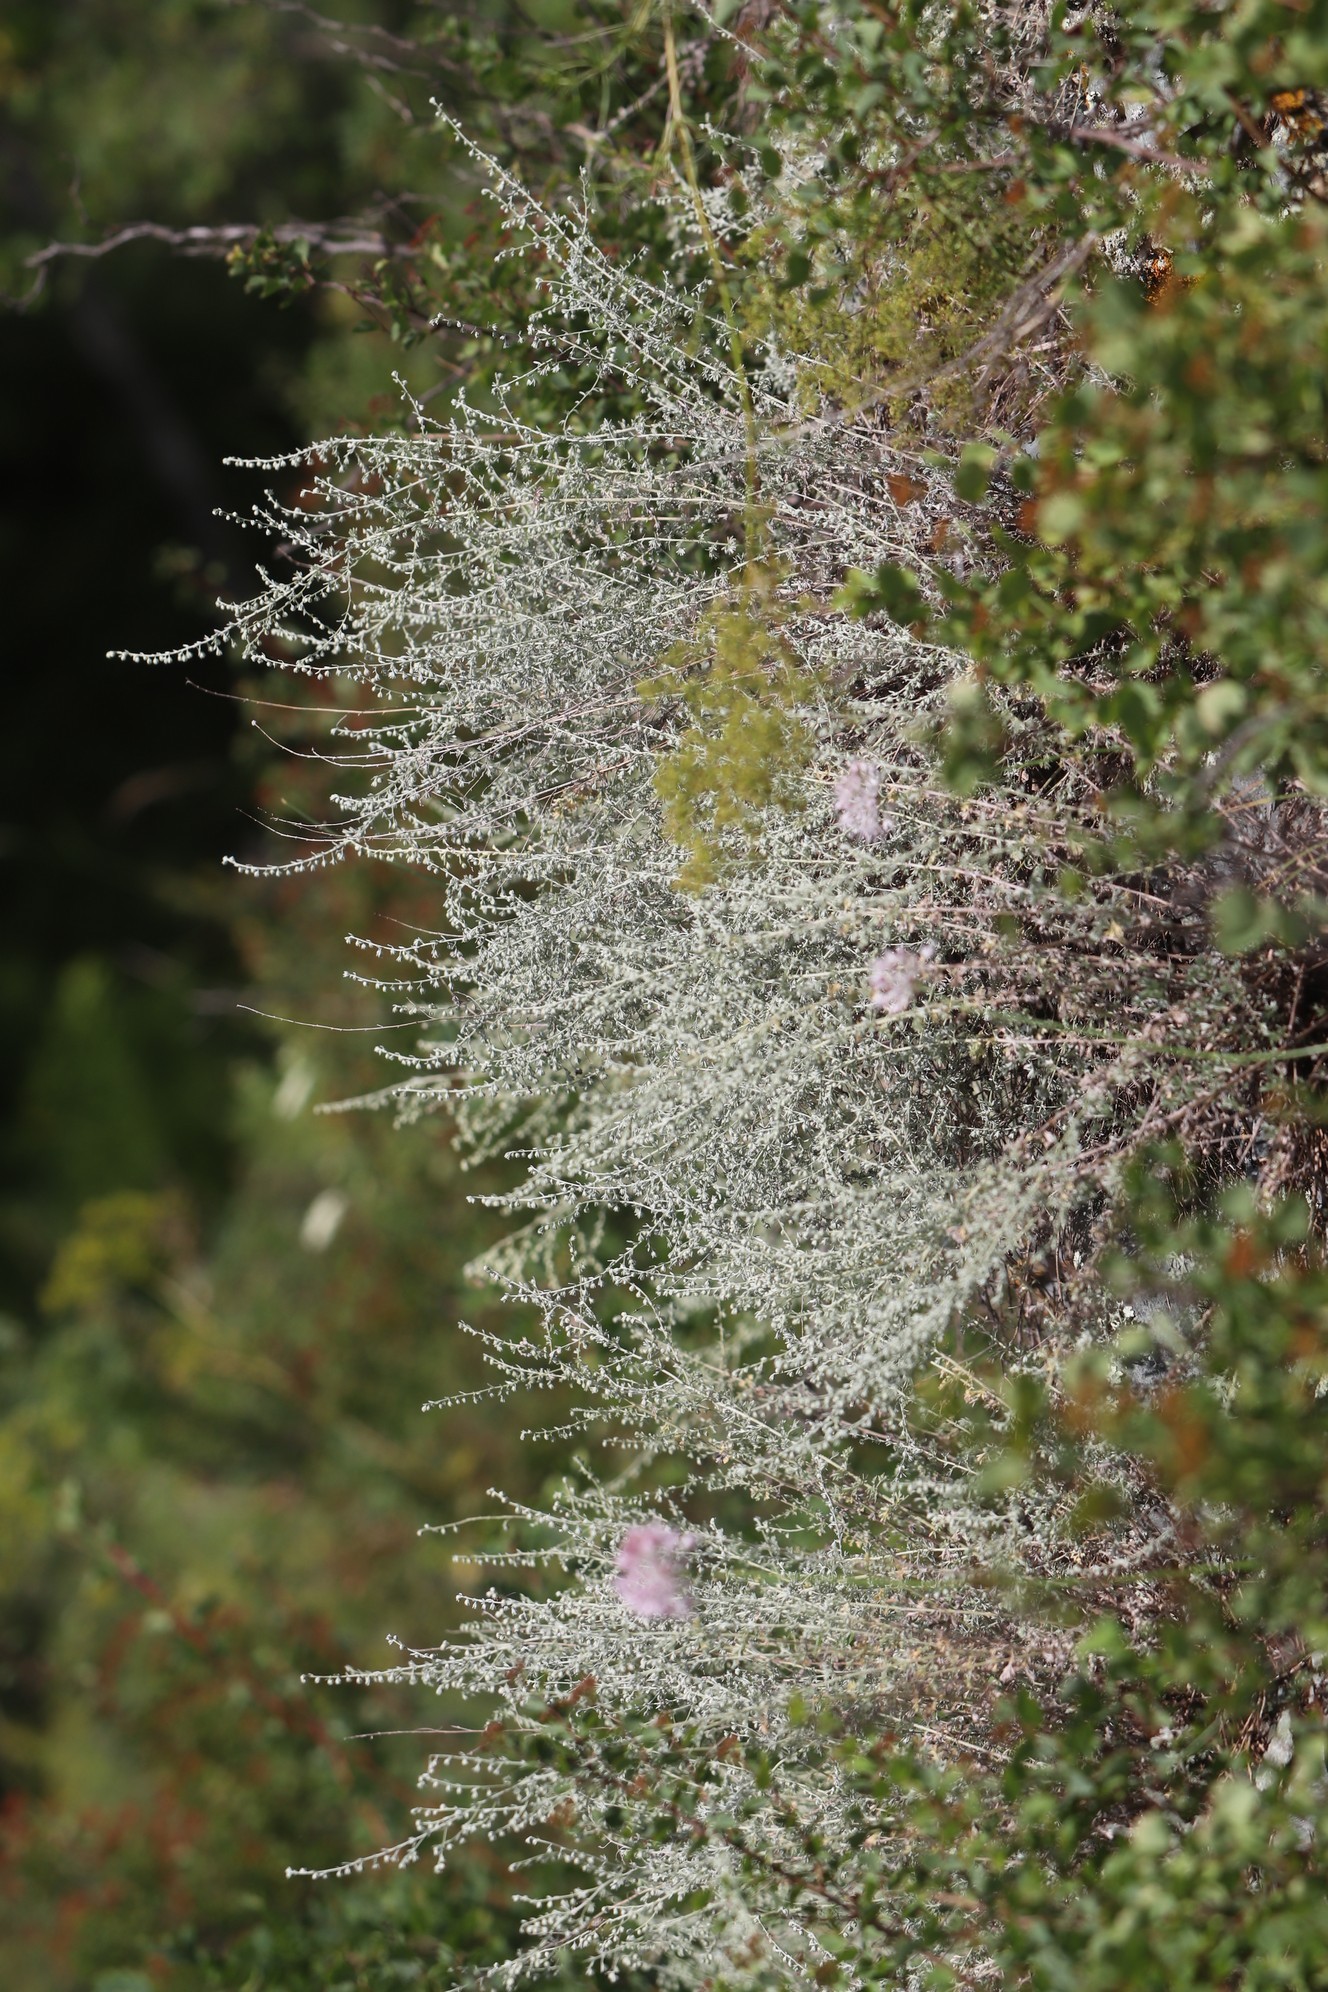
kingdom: Plantae
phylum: Tracheophyta
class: Magnoliopsida
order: Asterales
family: Asteraceae
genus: Artemisia
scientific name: Artemisia frigida
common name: Prairie sagewort
